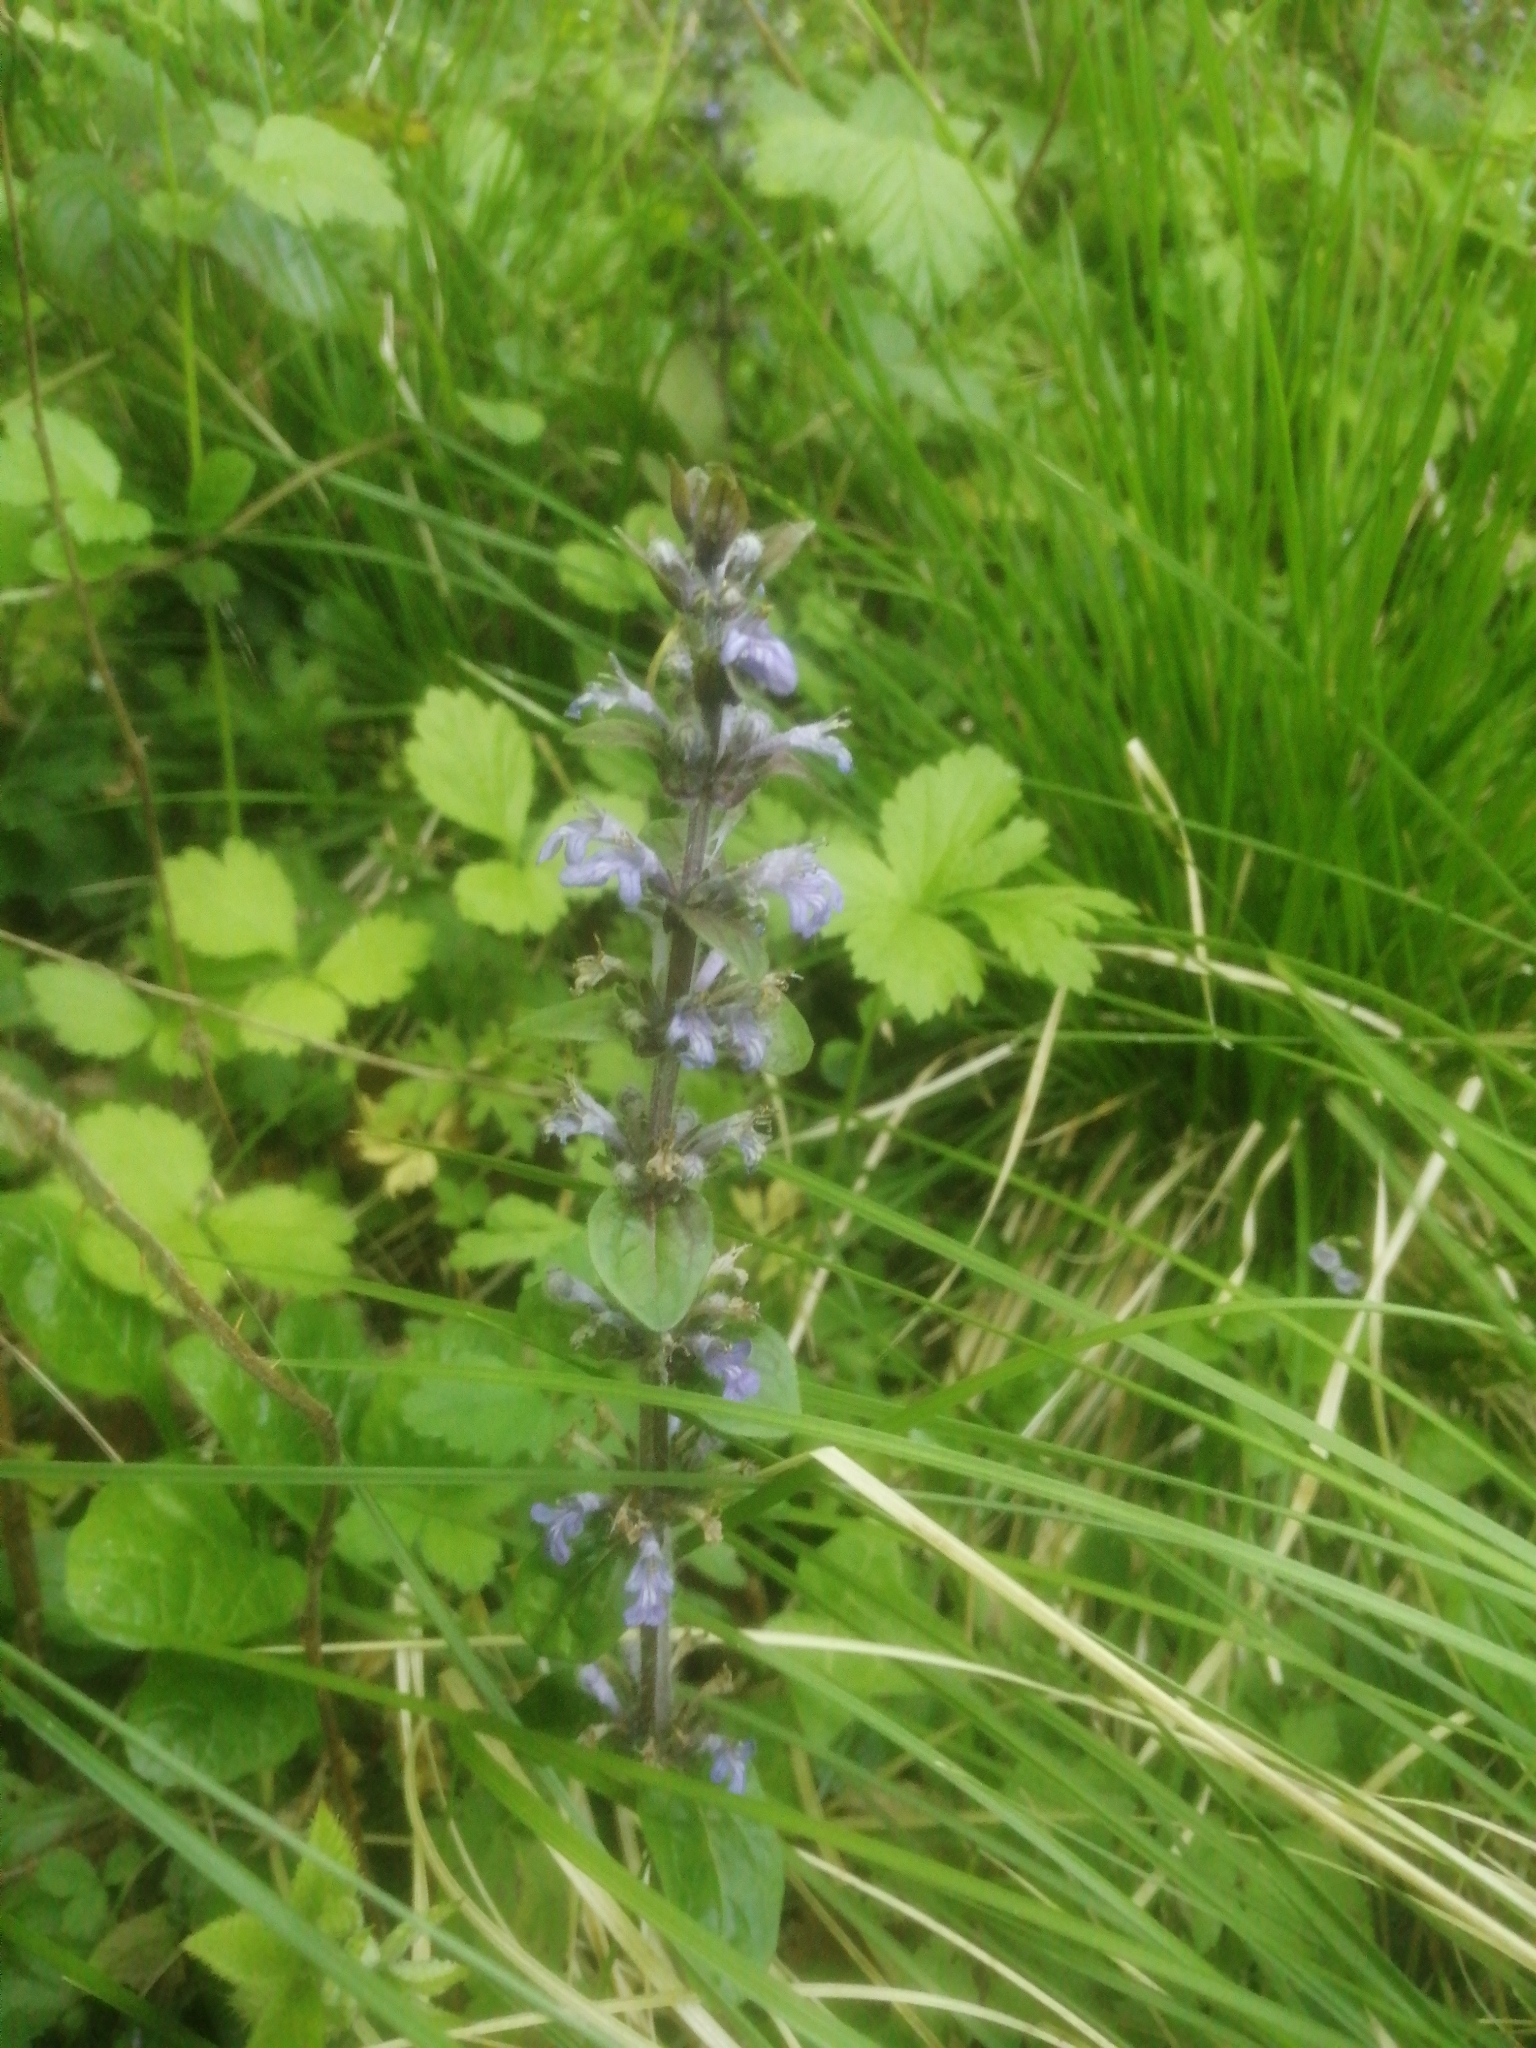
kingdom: Plantae
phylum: Tracheophyta
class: Magnoliopsida
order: Lamiales
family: Lamiaceae
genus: Ajuga
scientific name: Ajuga reptans
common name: Bugle
